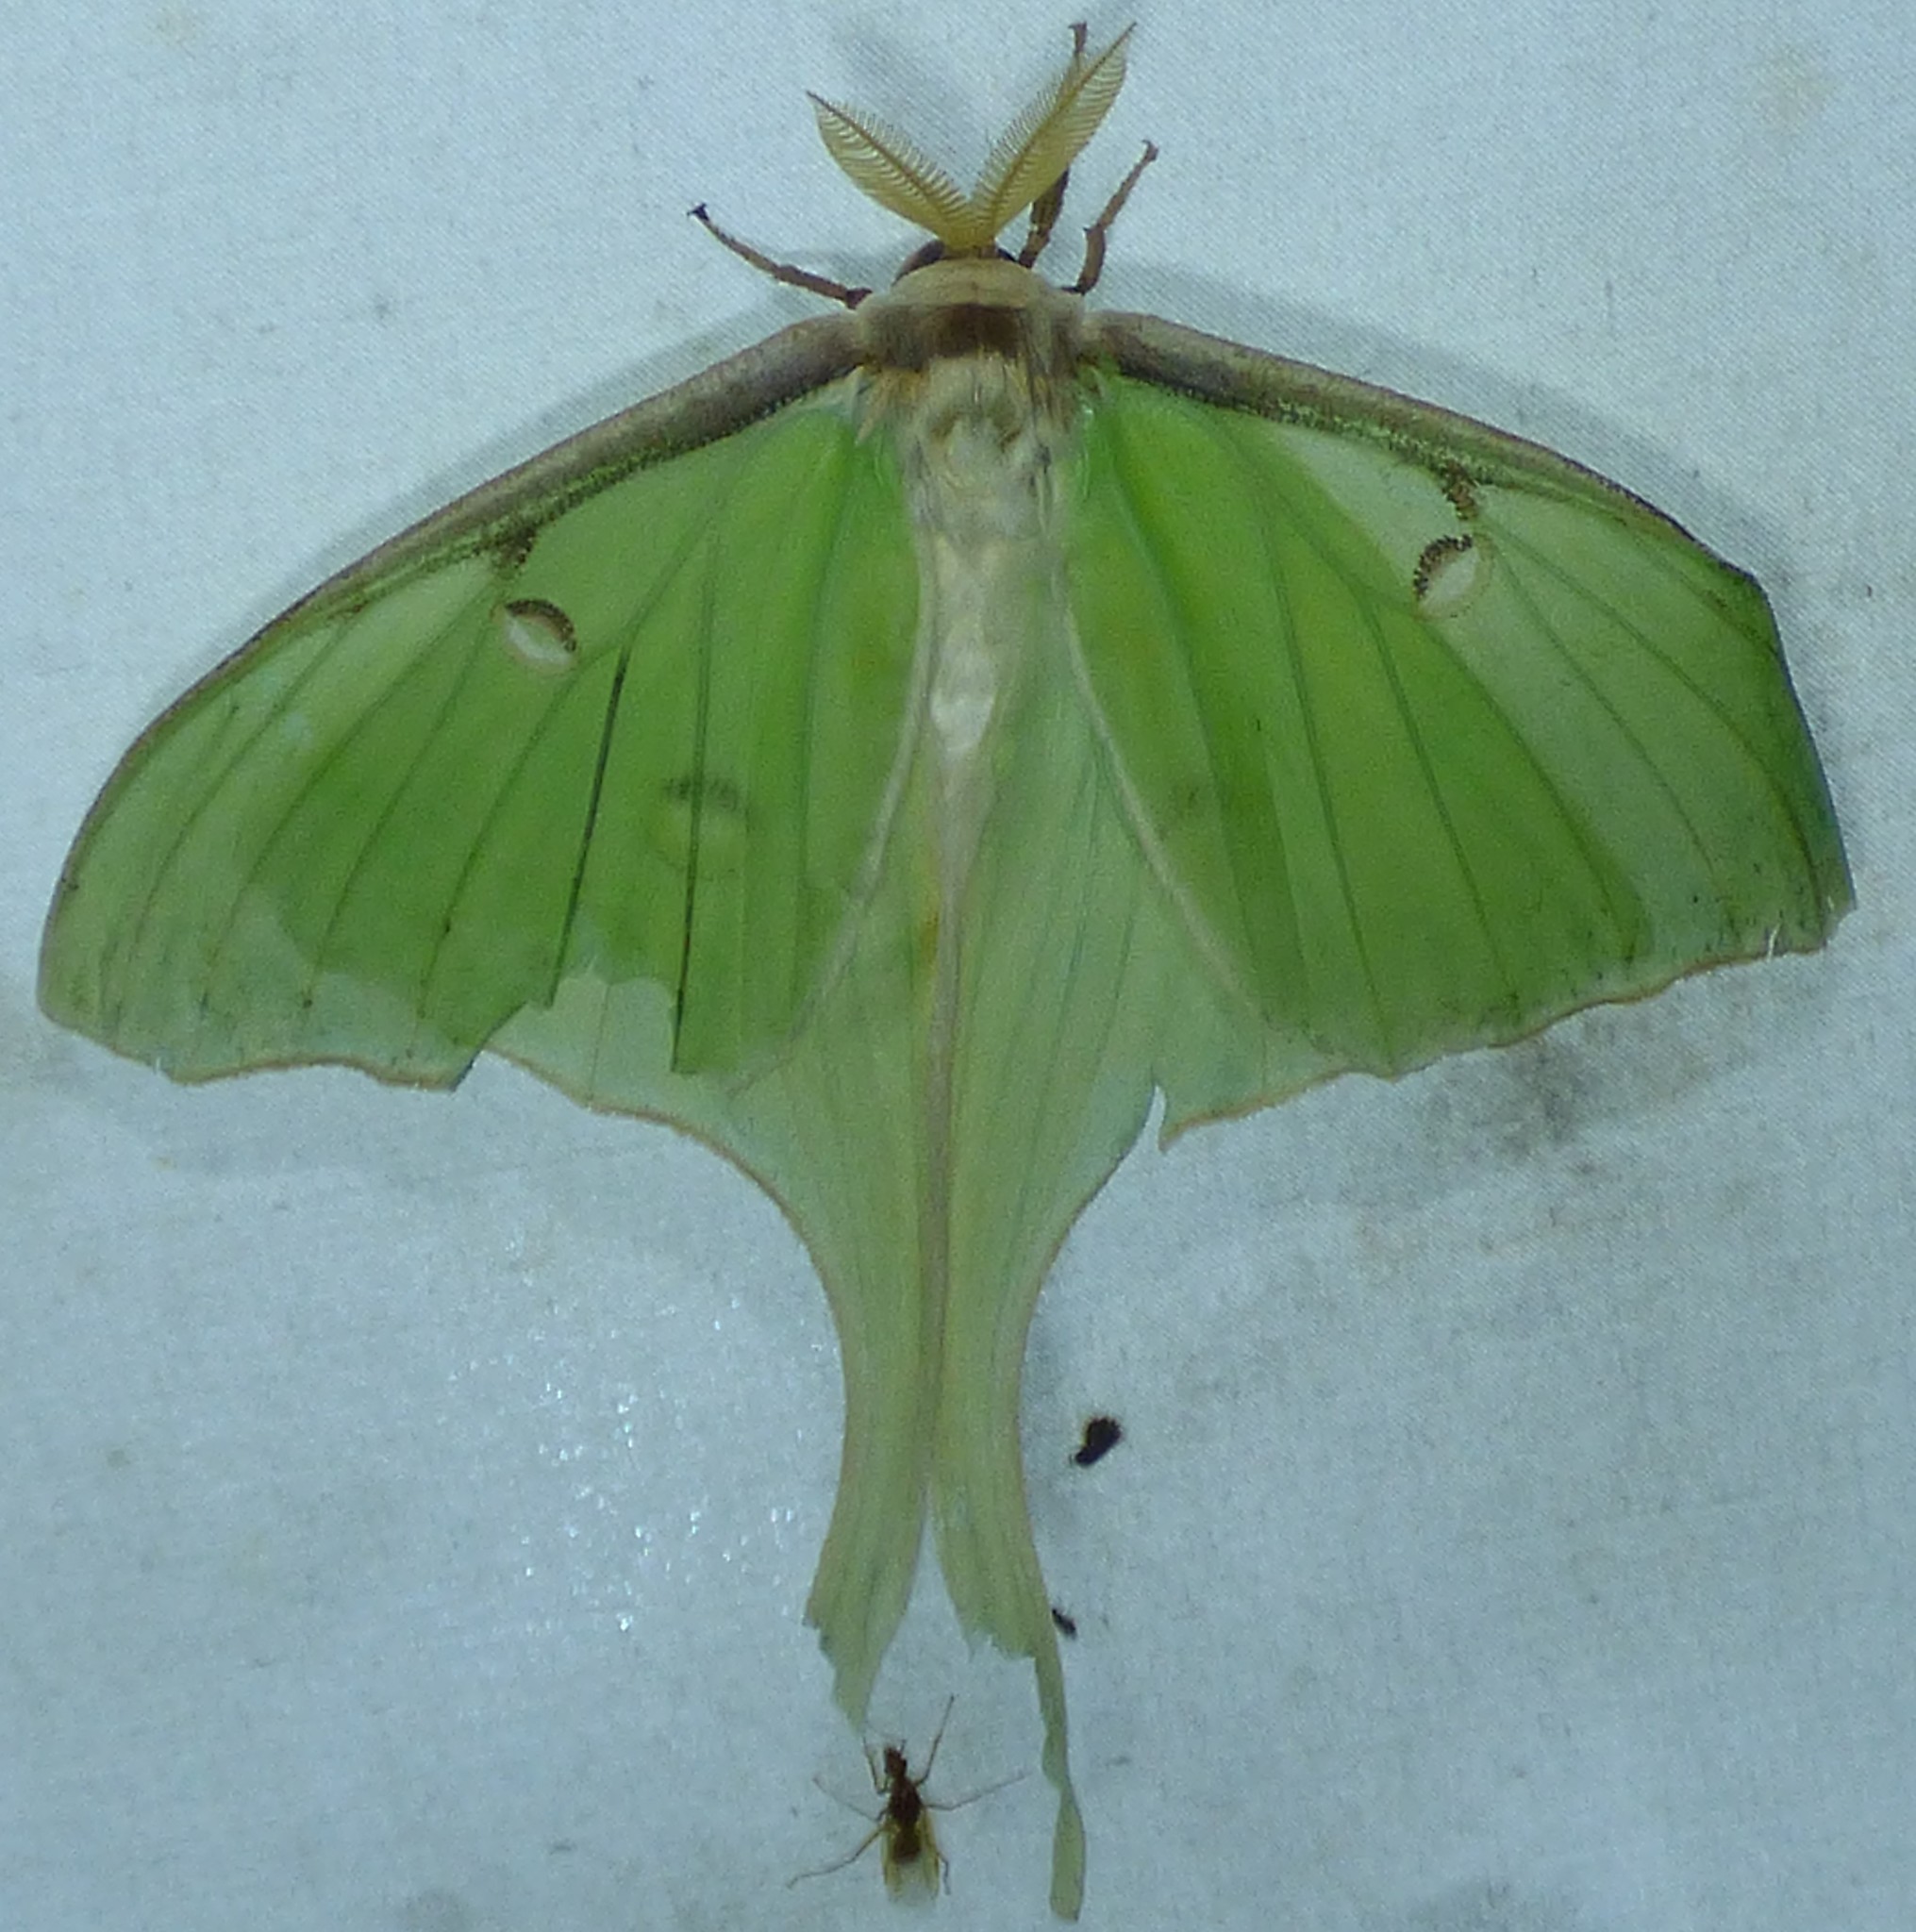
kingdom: Animalia
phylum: Arthropoda
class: Insecta
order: Lepidoptera
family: Saturniidae
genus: Actias
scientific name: Actias luna
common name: Luna moth
